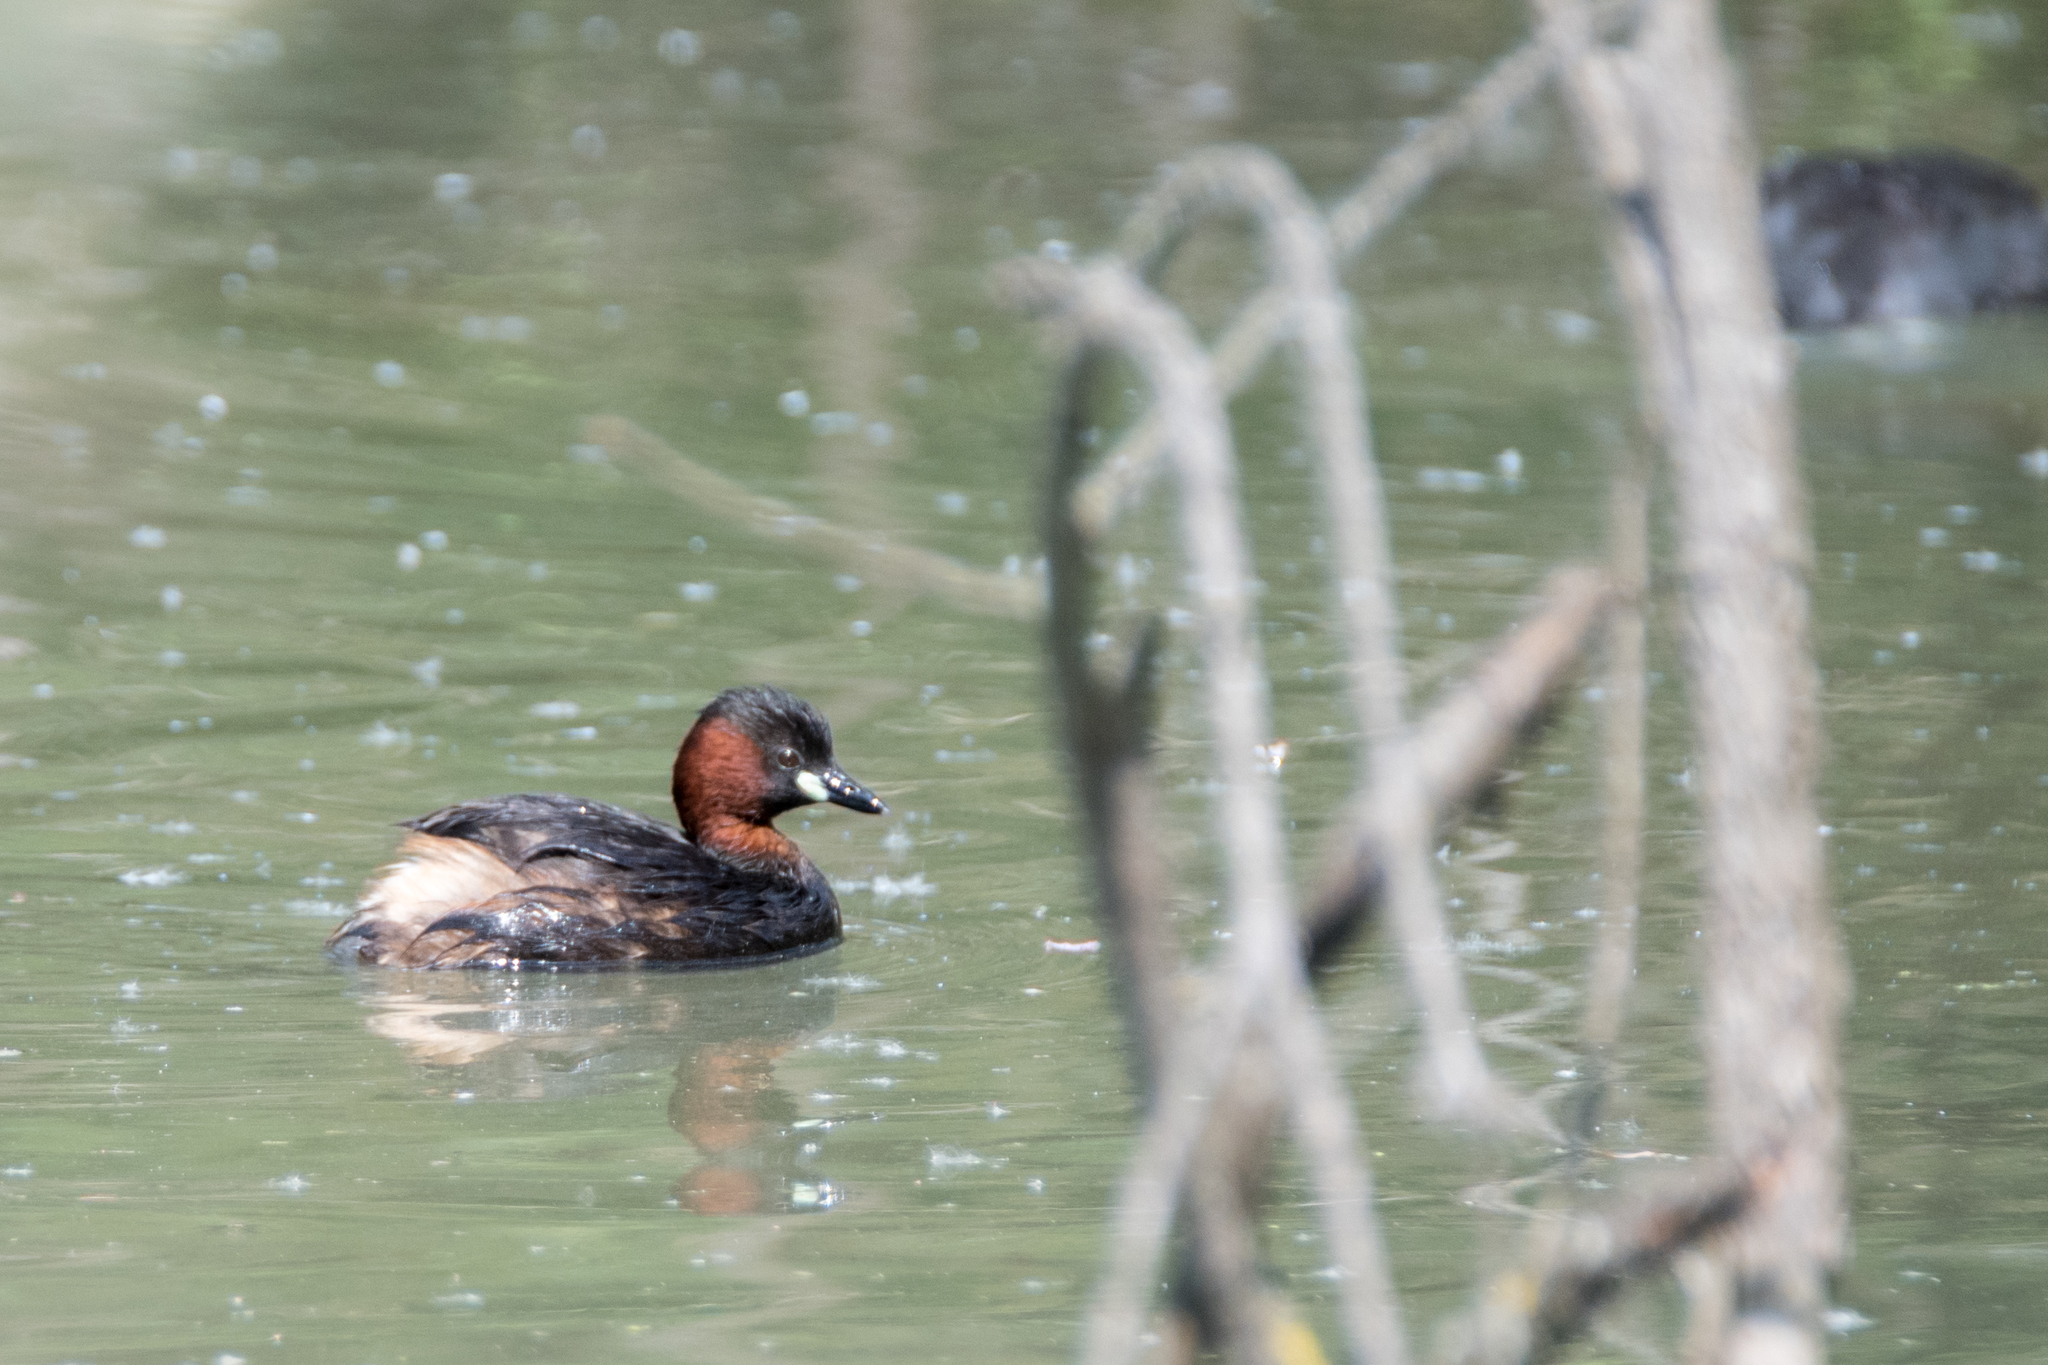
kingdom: Animalia
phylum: Chordata
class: Aves
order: Podicipediformes
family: Podicipedidae
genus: Tachybaptus
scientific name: Tachybaptus ruficollis
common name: Little grebe
